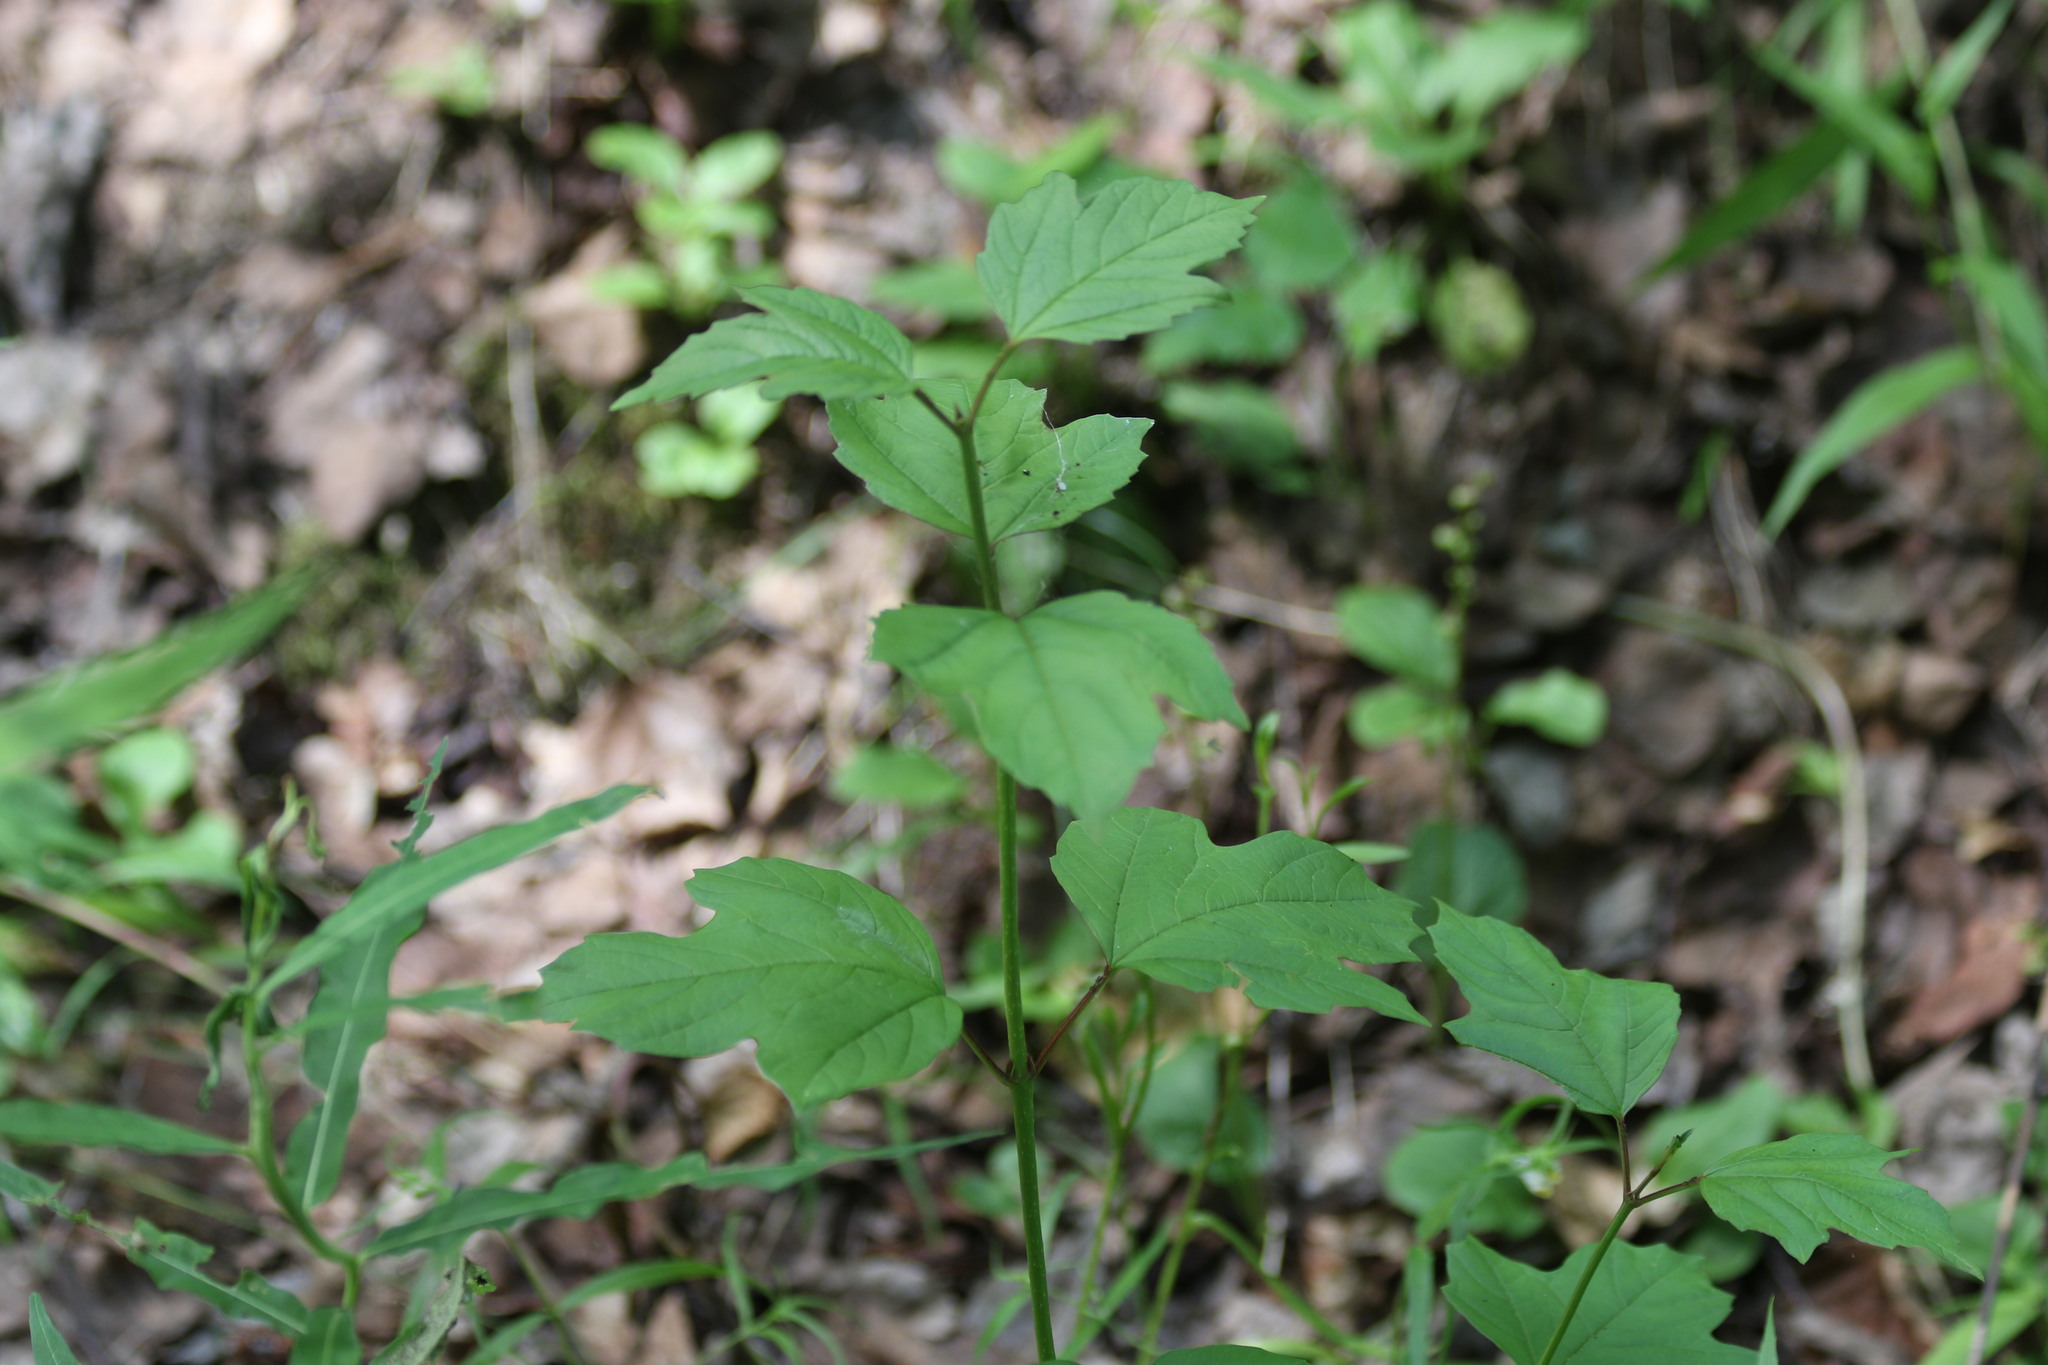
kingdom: Plantae
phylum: Tracheophyta
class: Magnoliopsida
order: Dipsacales
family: Viburnaceae
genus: Viburnum
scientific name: Viburnum opulus
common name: Guelder-rose
